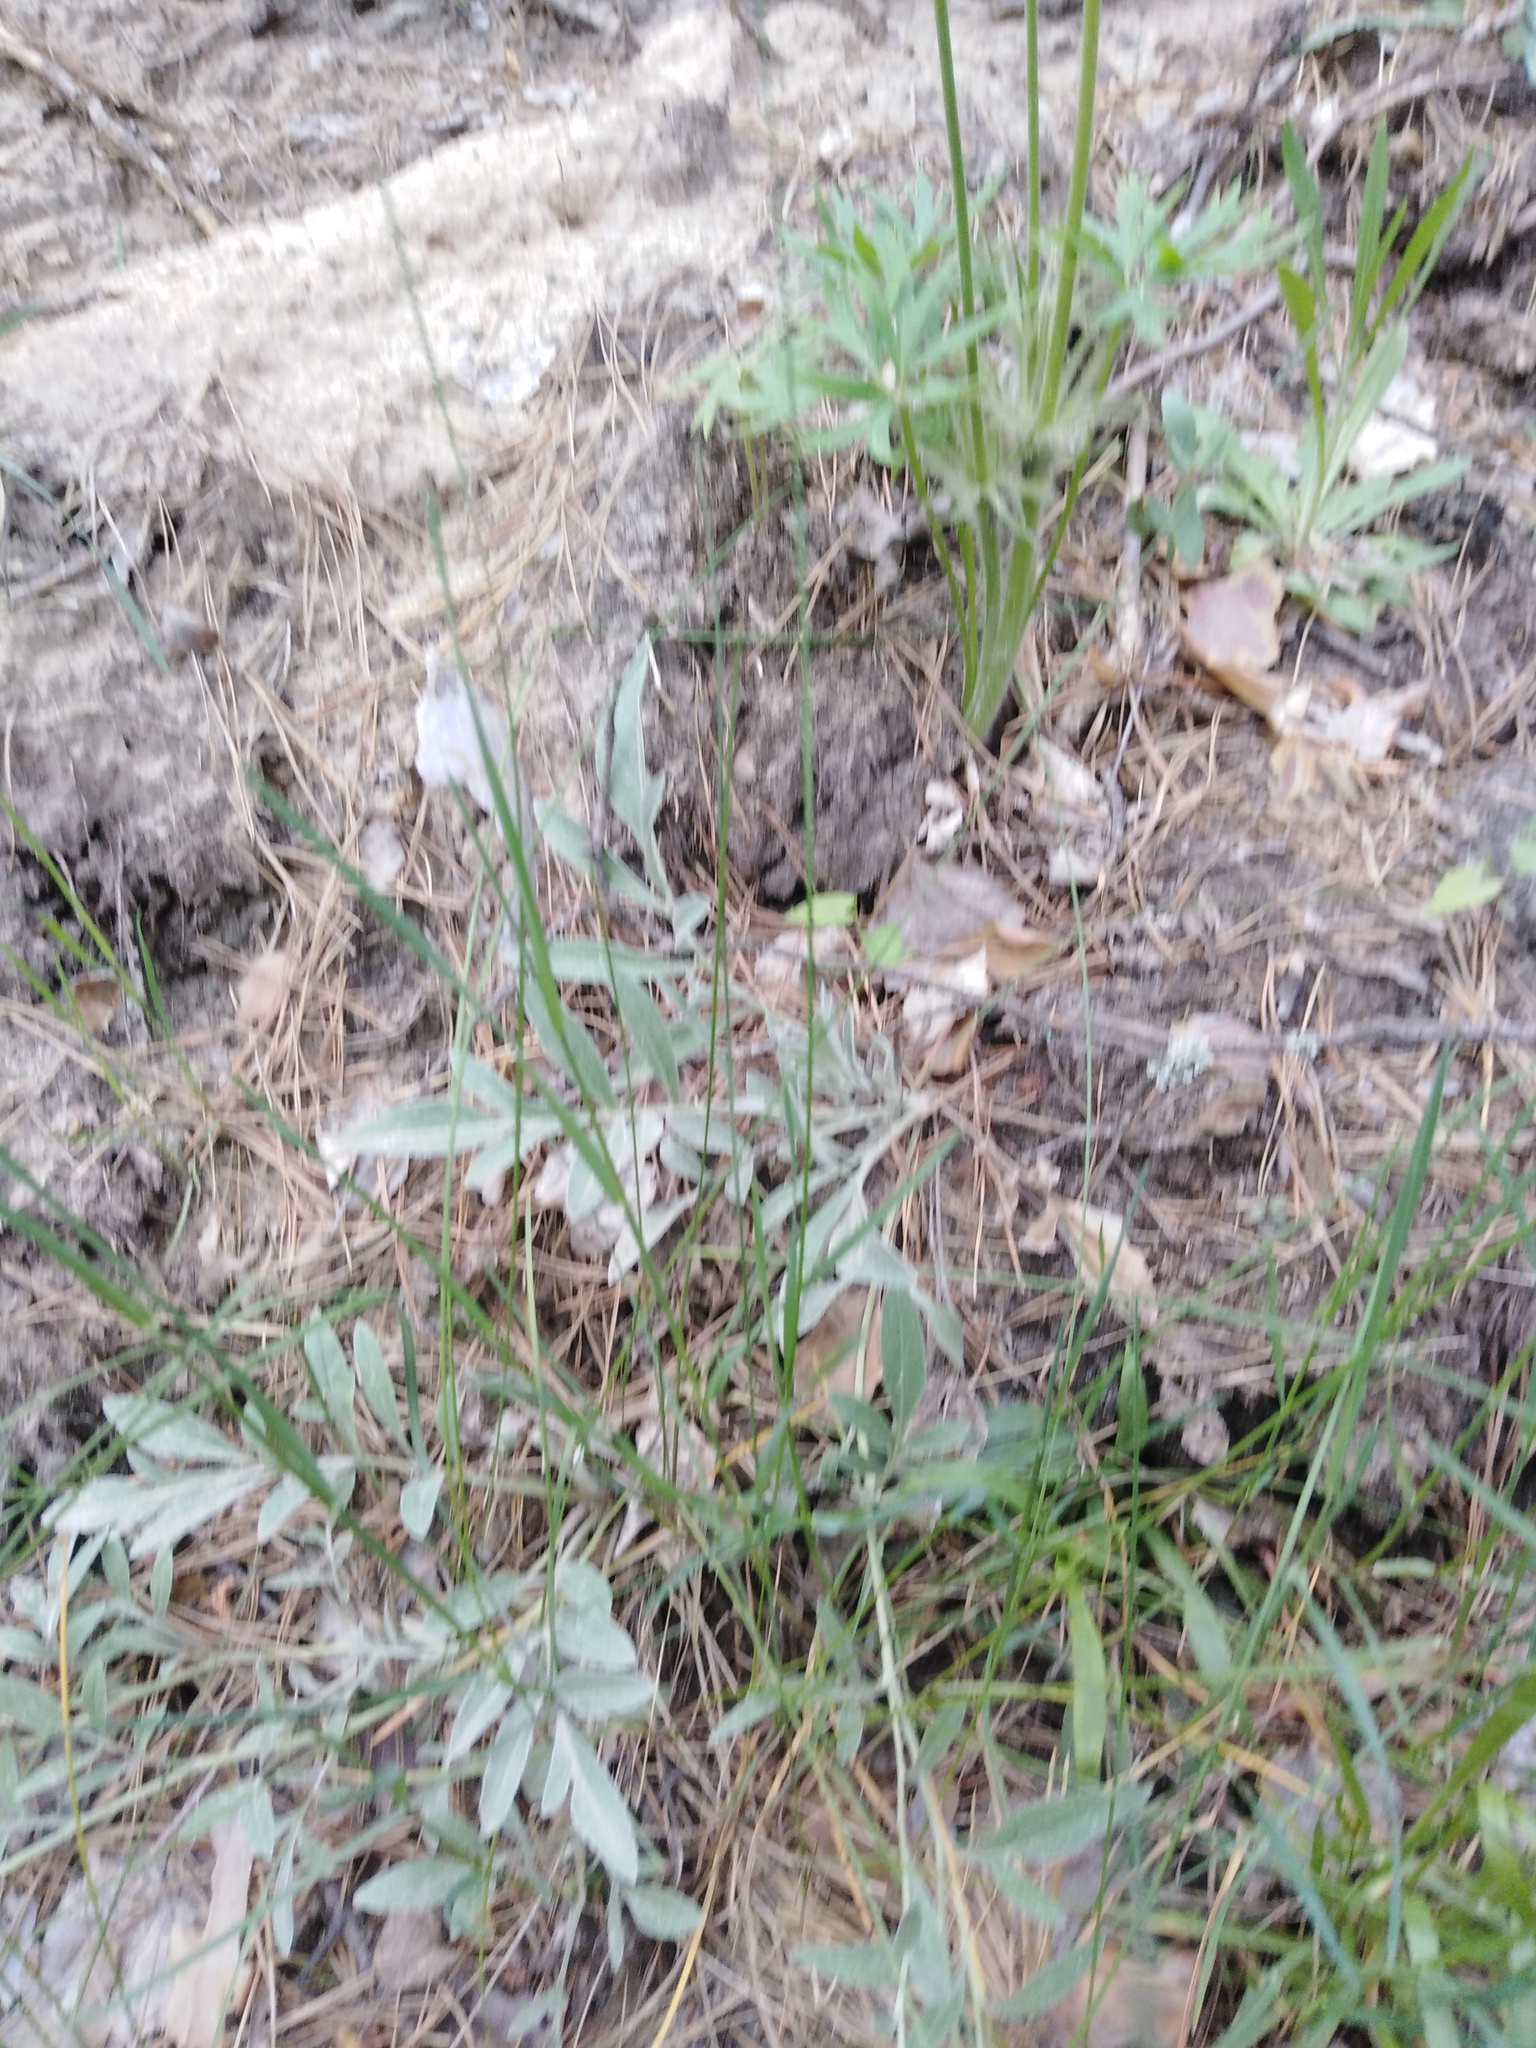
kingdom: Plantae
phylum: Tracheophyta
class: Magnoliopsida
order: Asterales
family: Asteraceae
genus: Psephellus
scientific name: Psephellus sumensis
